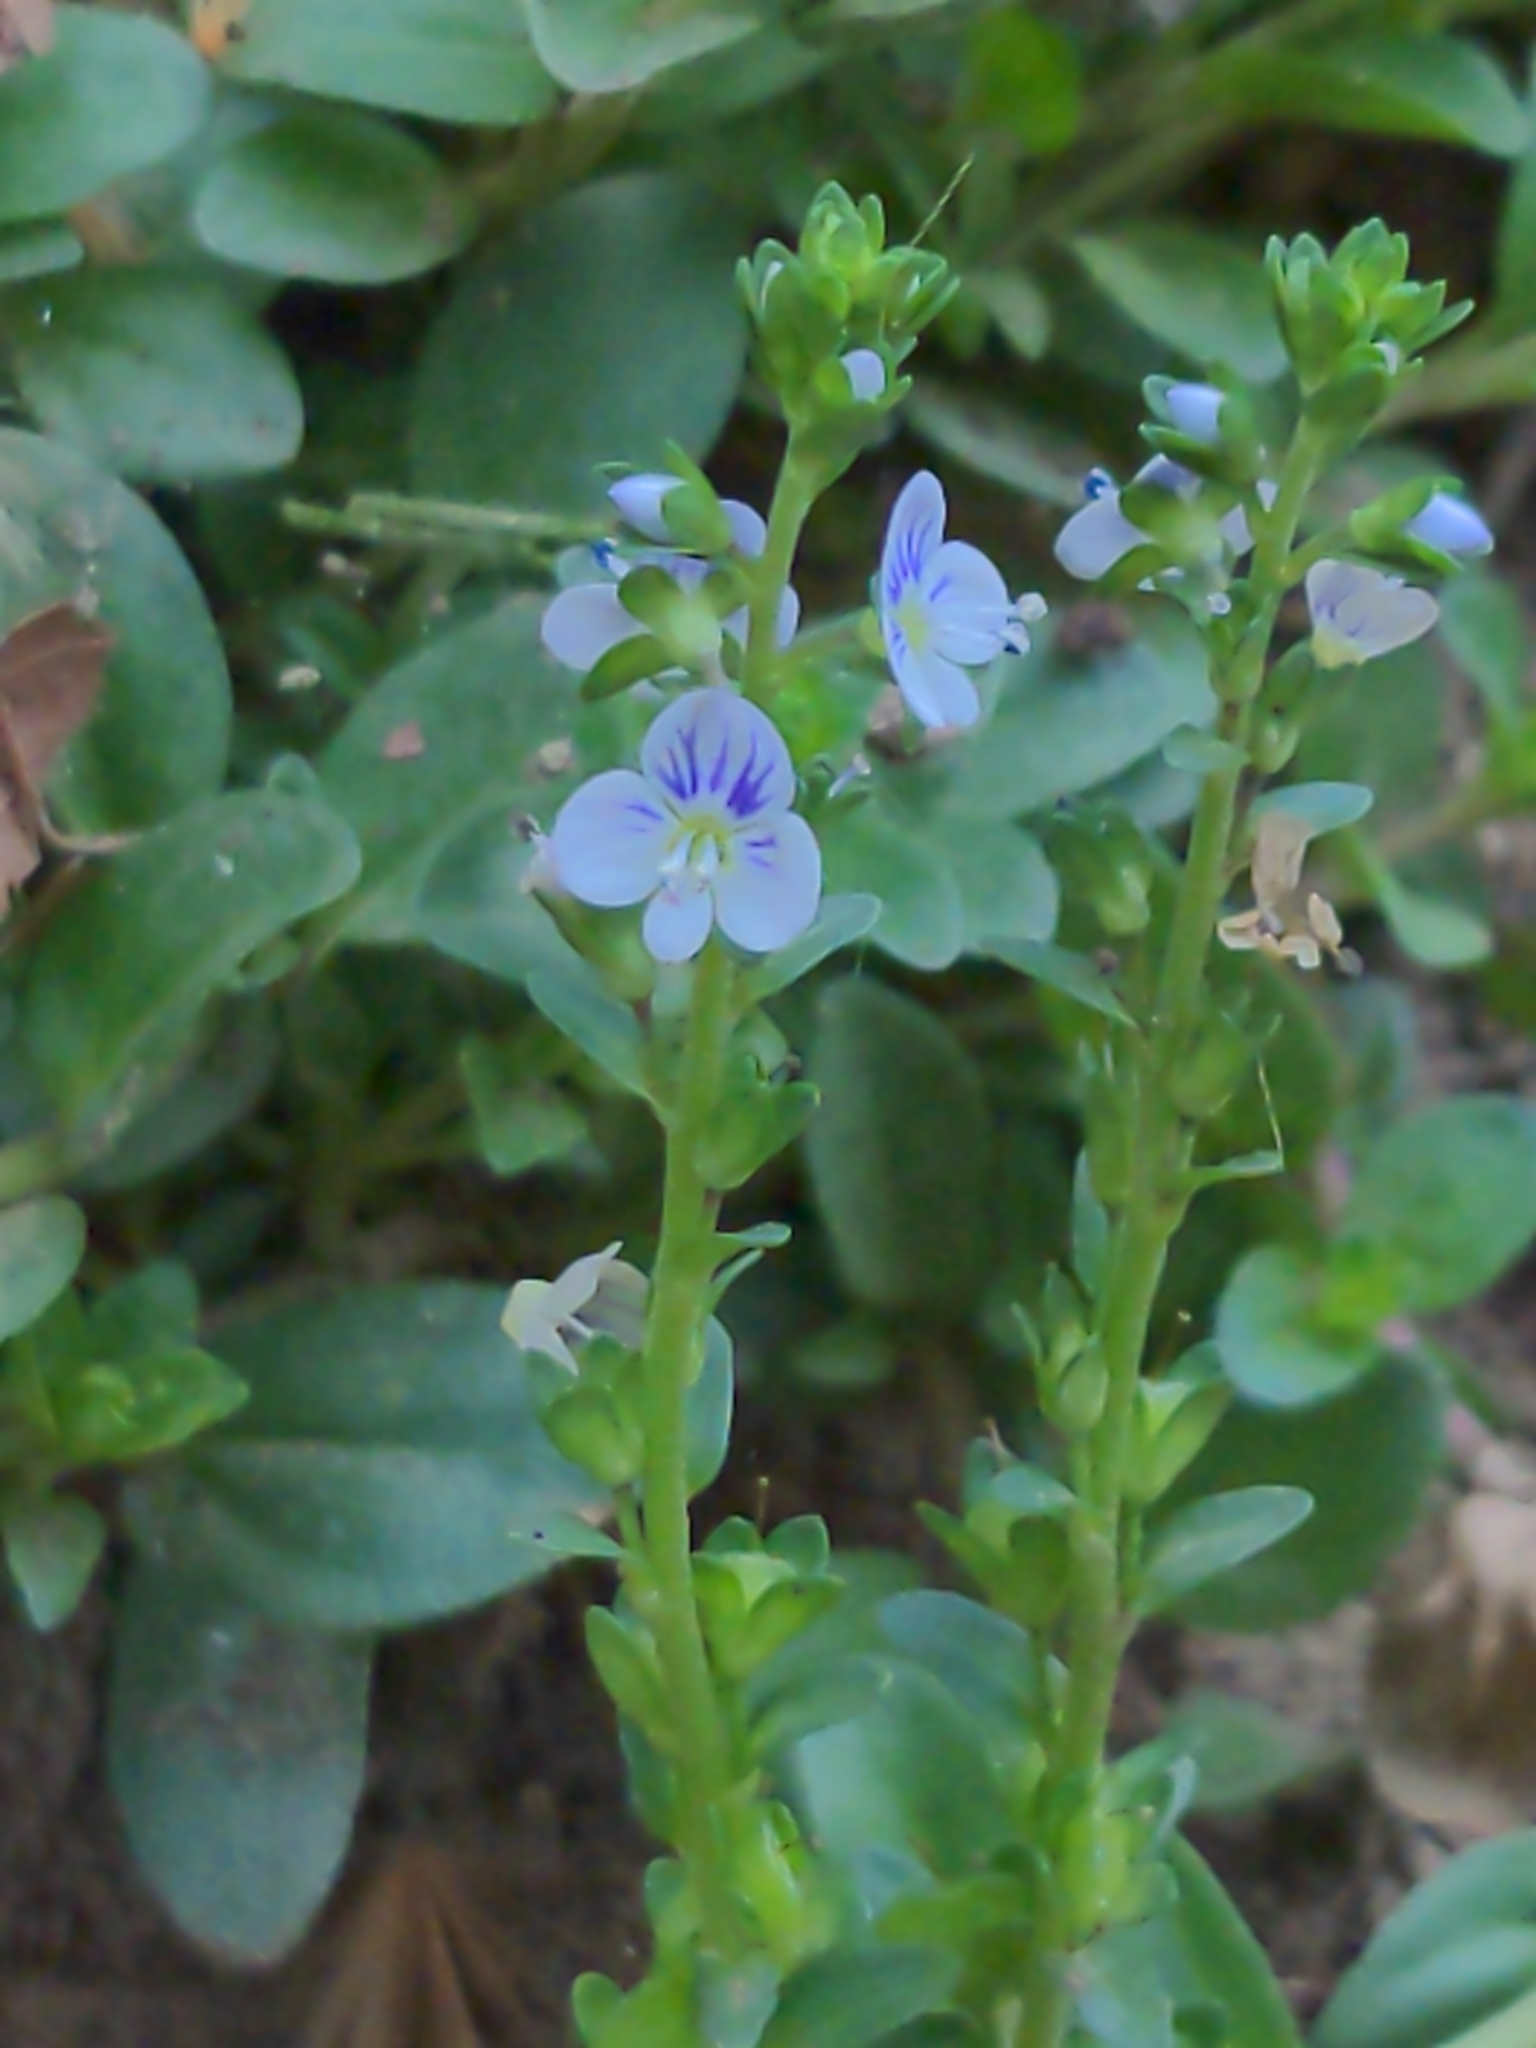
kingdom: Plantae
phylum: Tracheophyta
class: Magnoliopsida
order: Lamiales
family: Plantaginaceae
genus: Veronica
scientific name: Veronica serpyllifolia
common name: Thyme-leaved speedwell
